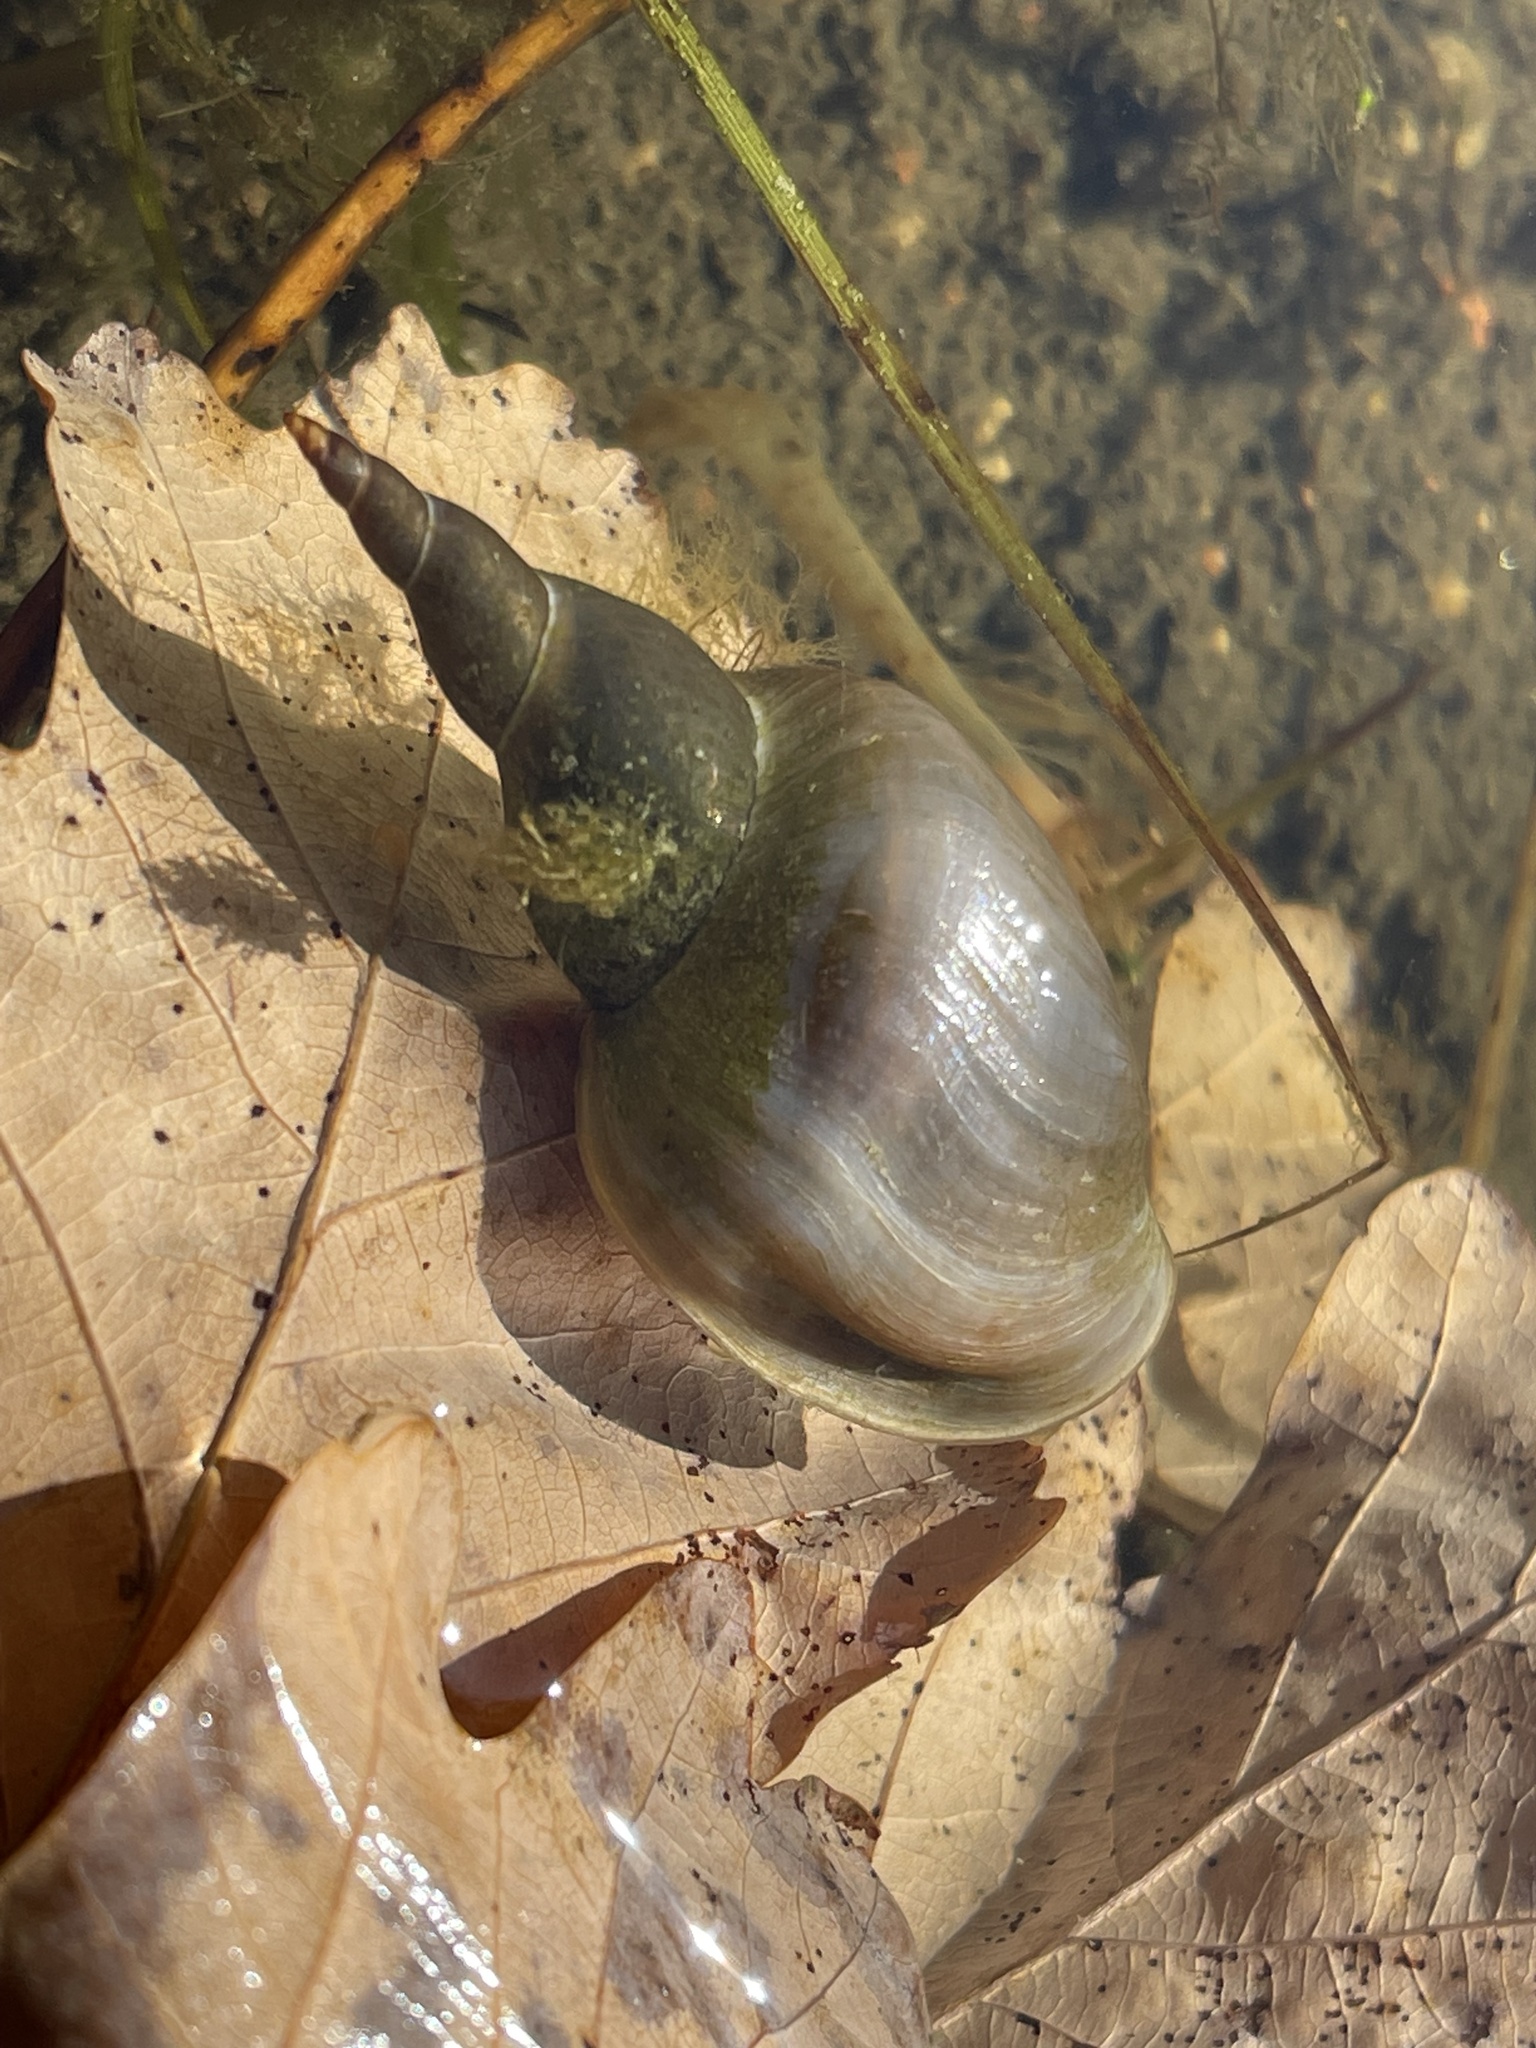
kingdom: Animalia
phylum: Mollusca
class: Gastropoda
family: Lymnaeidae
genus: Lymnaea
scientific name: Lymnaea stagnalis
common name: Great pond snail
